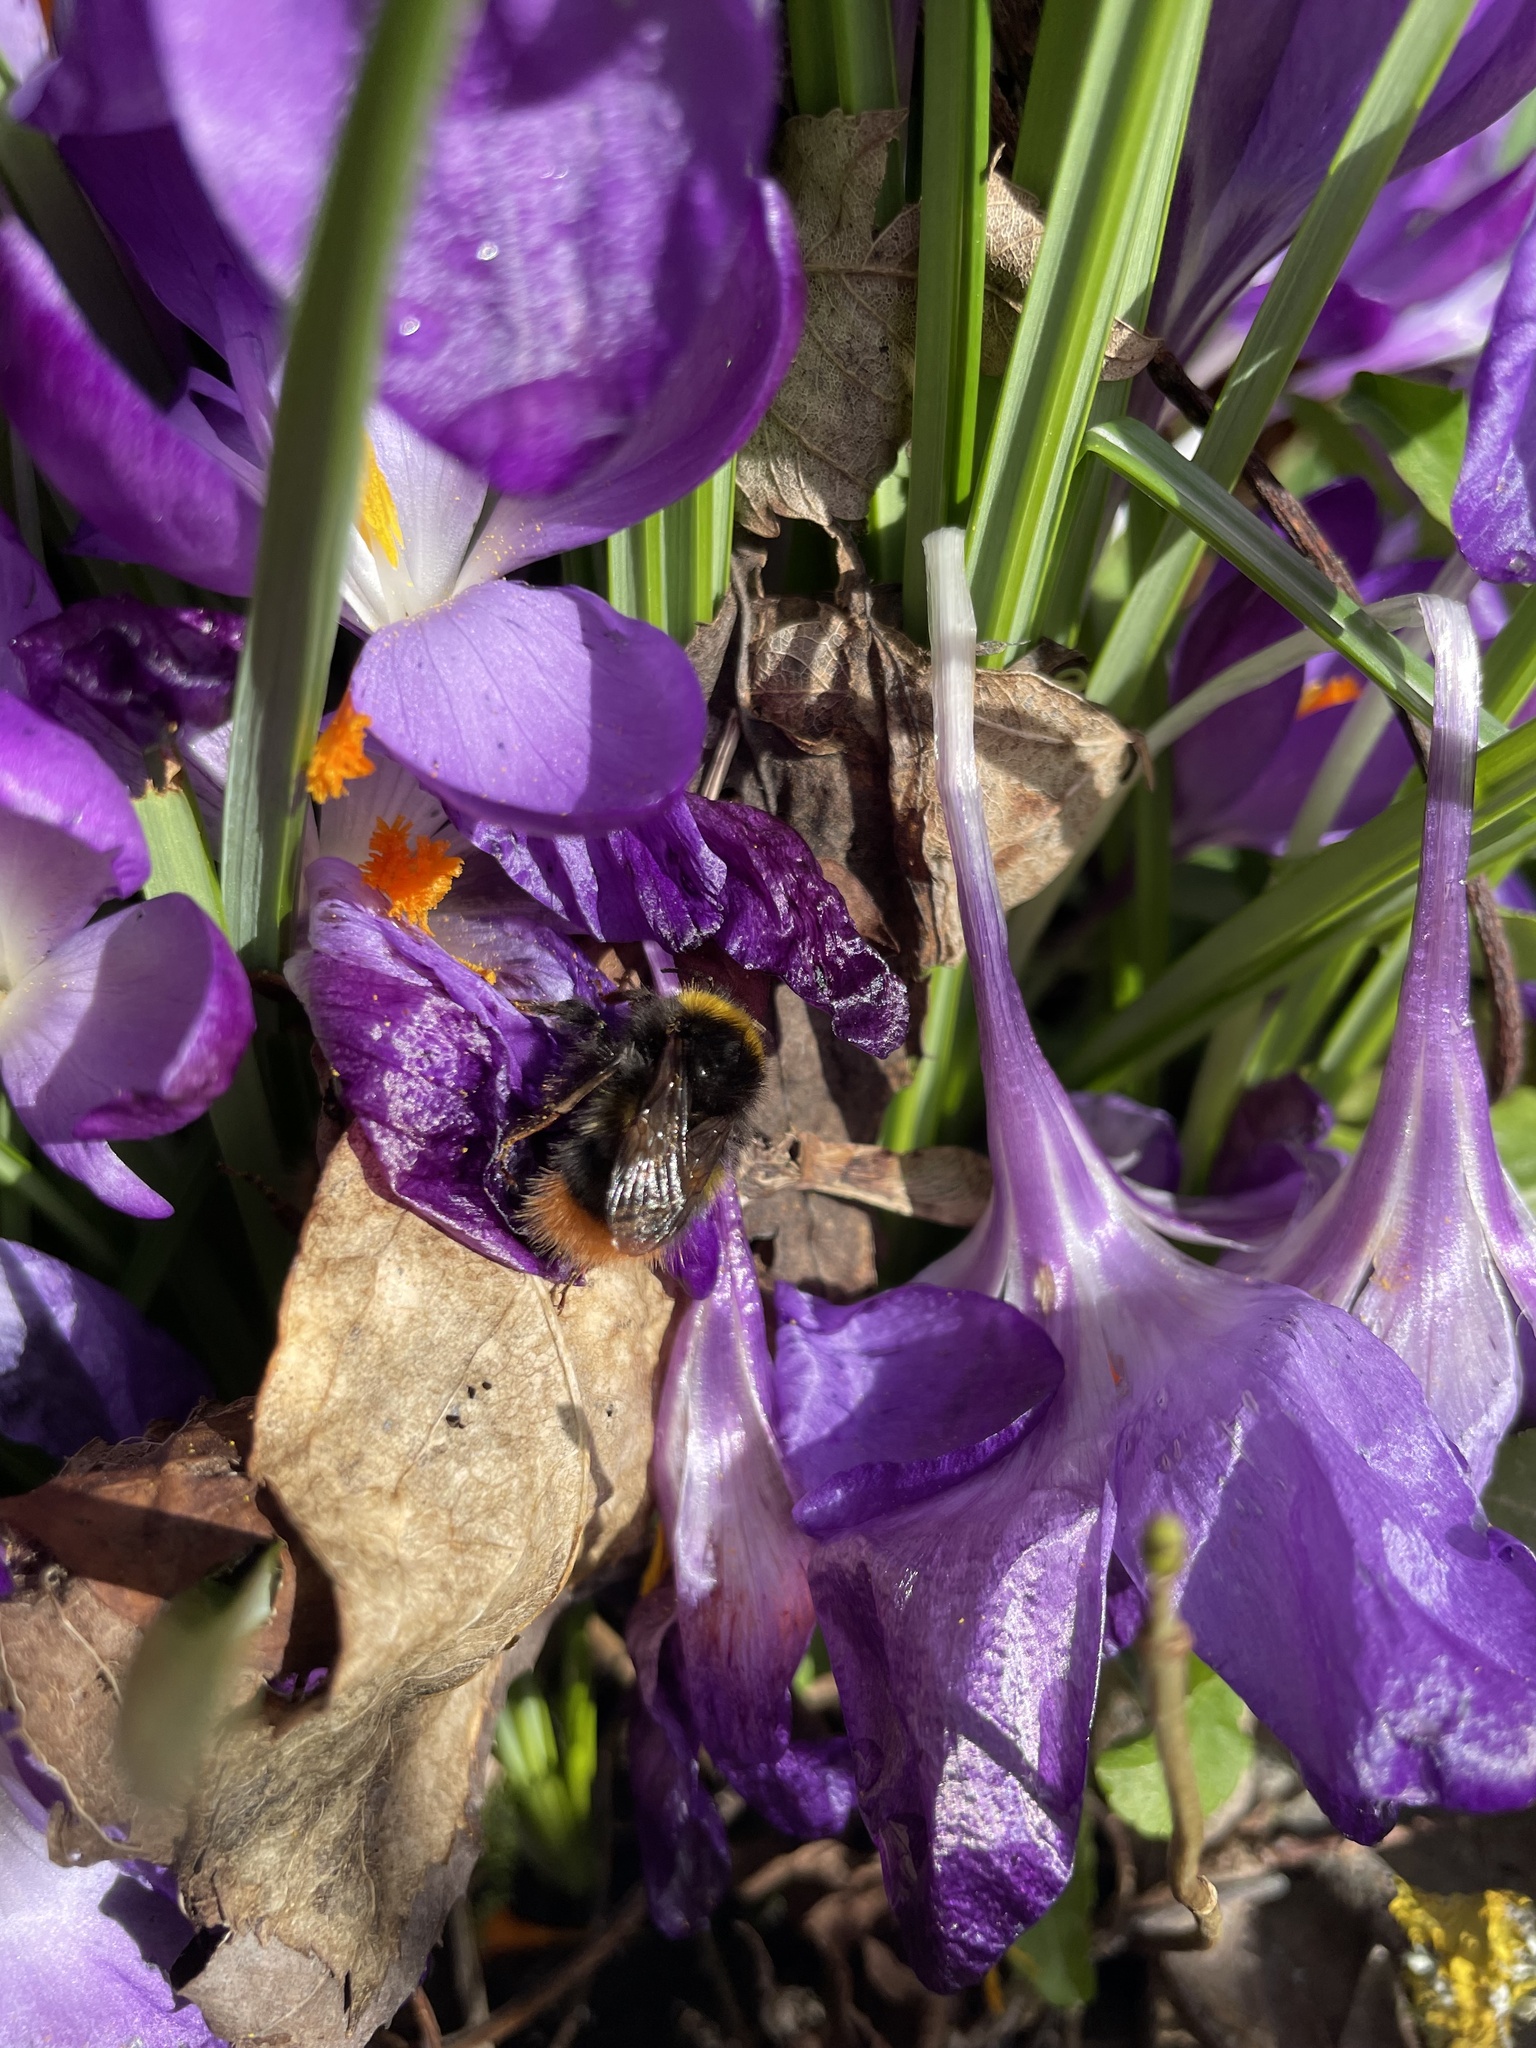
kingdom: Animalia
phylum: Arthropoda
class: Insecta
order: Hymenoptera
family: Apidae
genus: Bombus
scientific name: Bombus pratorum
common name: Early humble-bee
